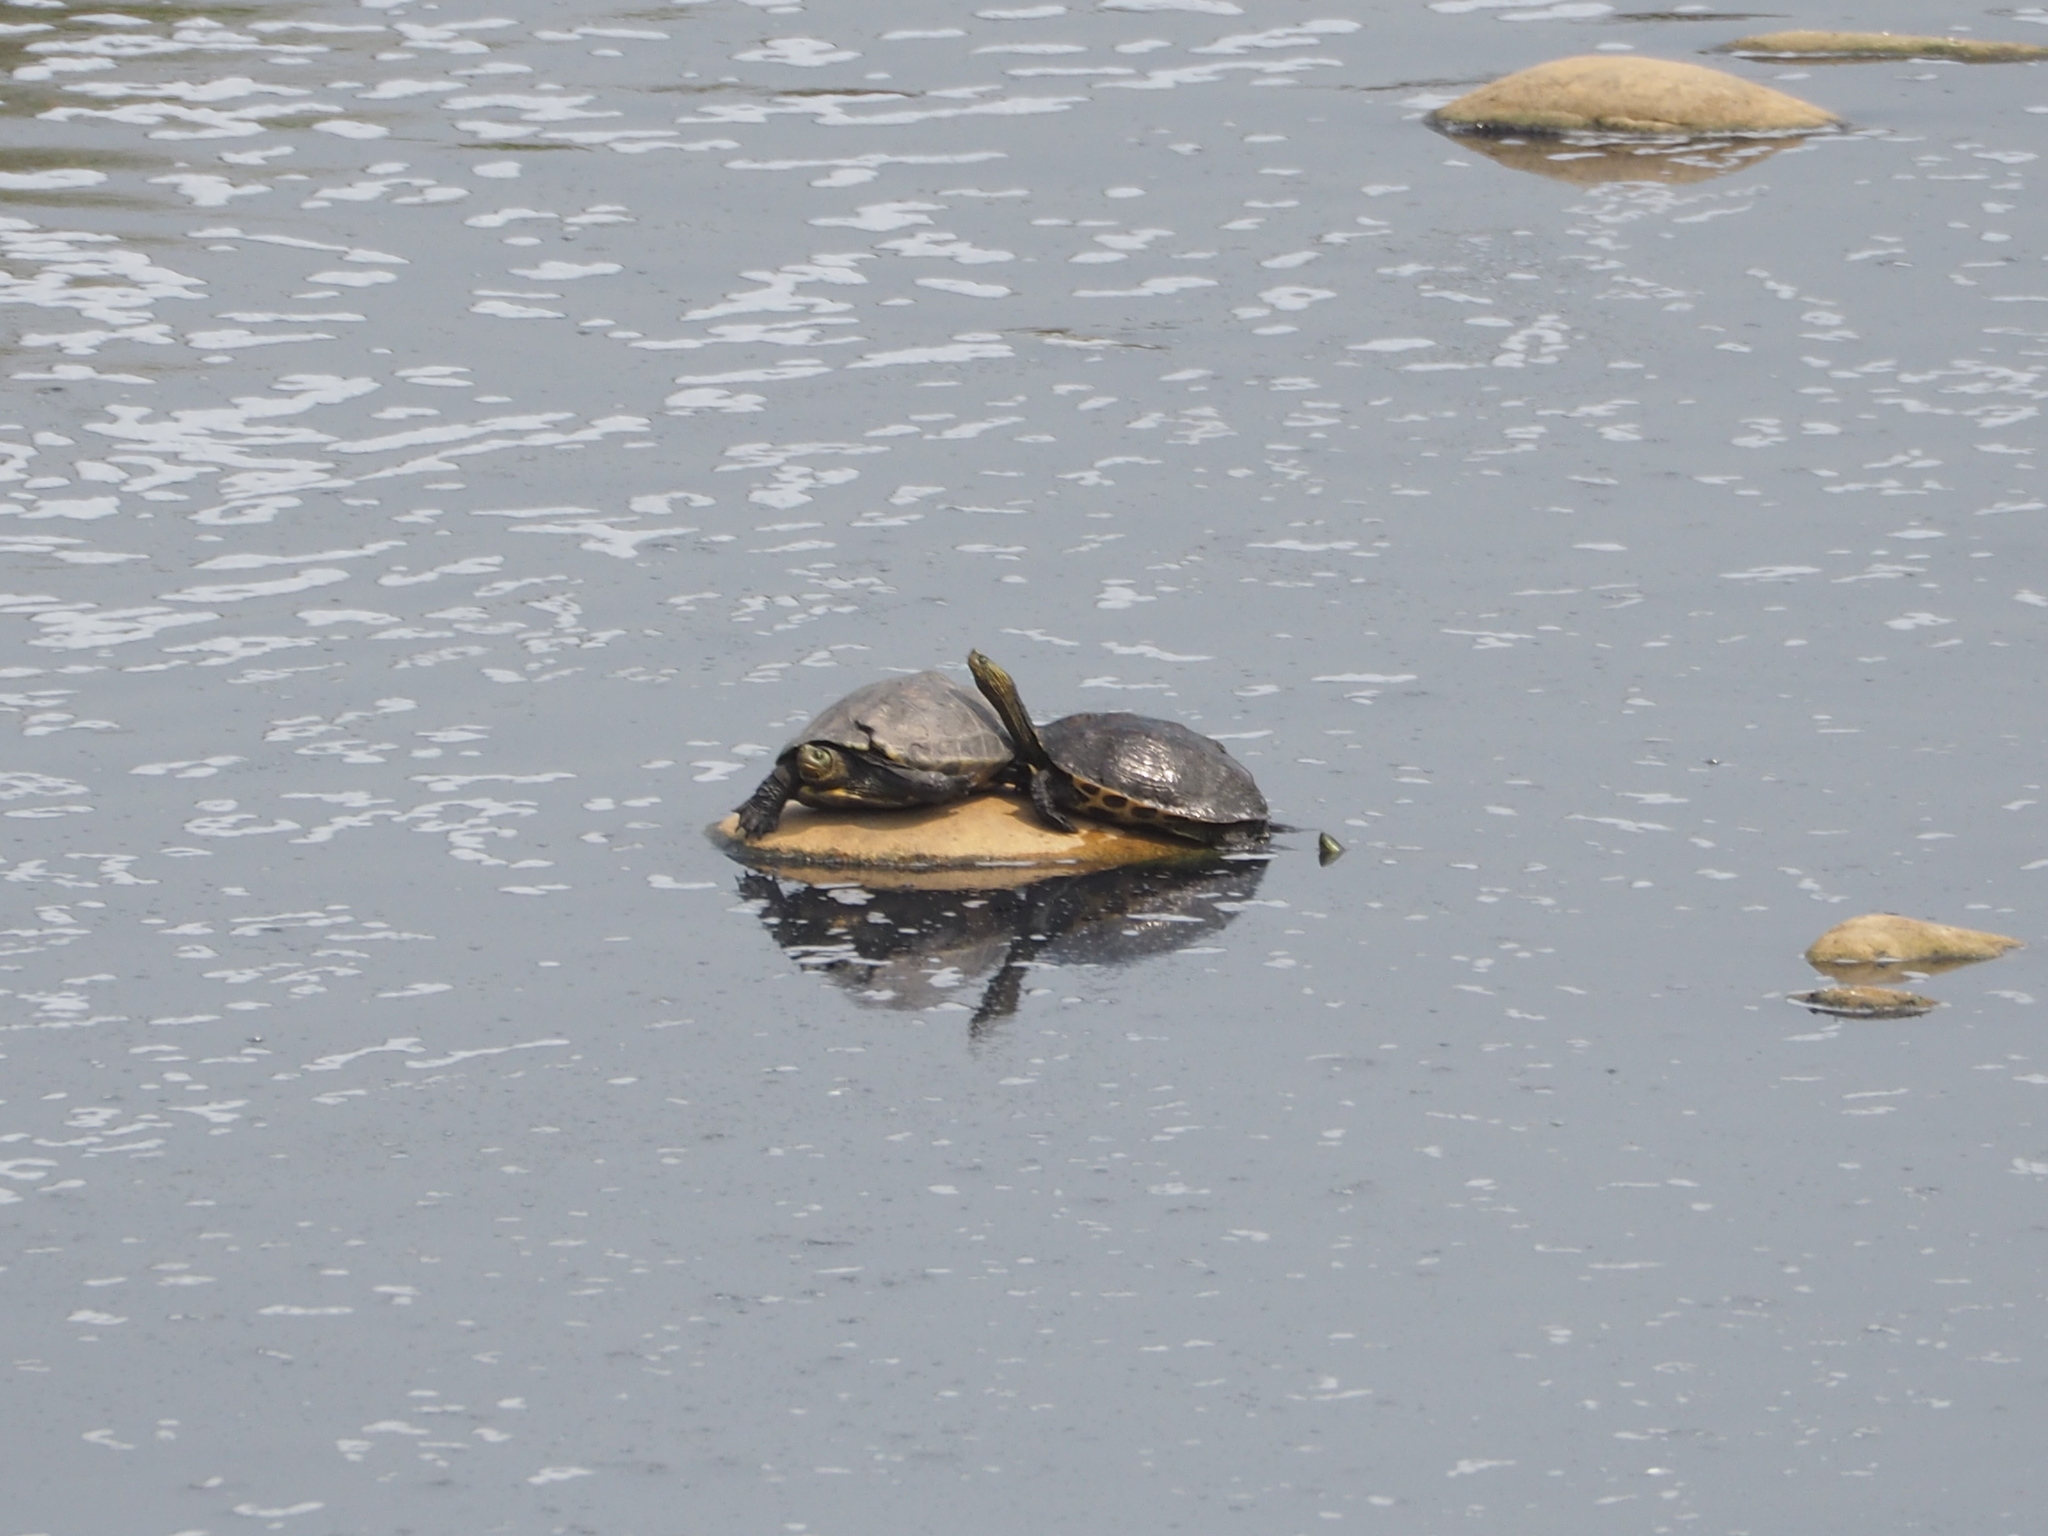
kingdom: Animalia
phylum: Chordata
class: Testudines
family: Geoemydidae
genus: Mauremys
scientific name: Mauremys sinensis
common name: Chinese stripe-necked turtle
